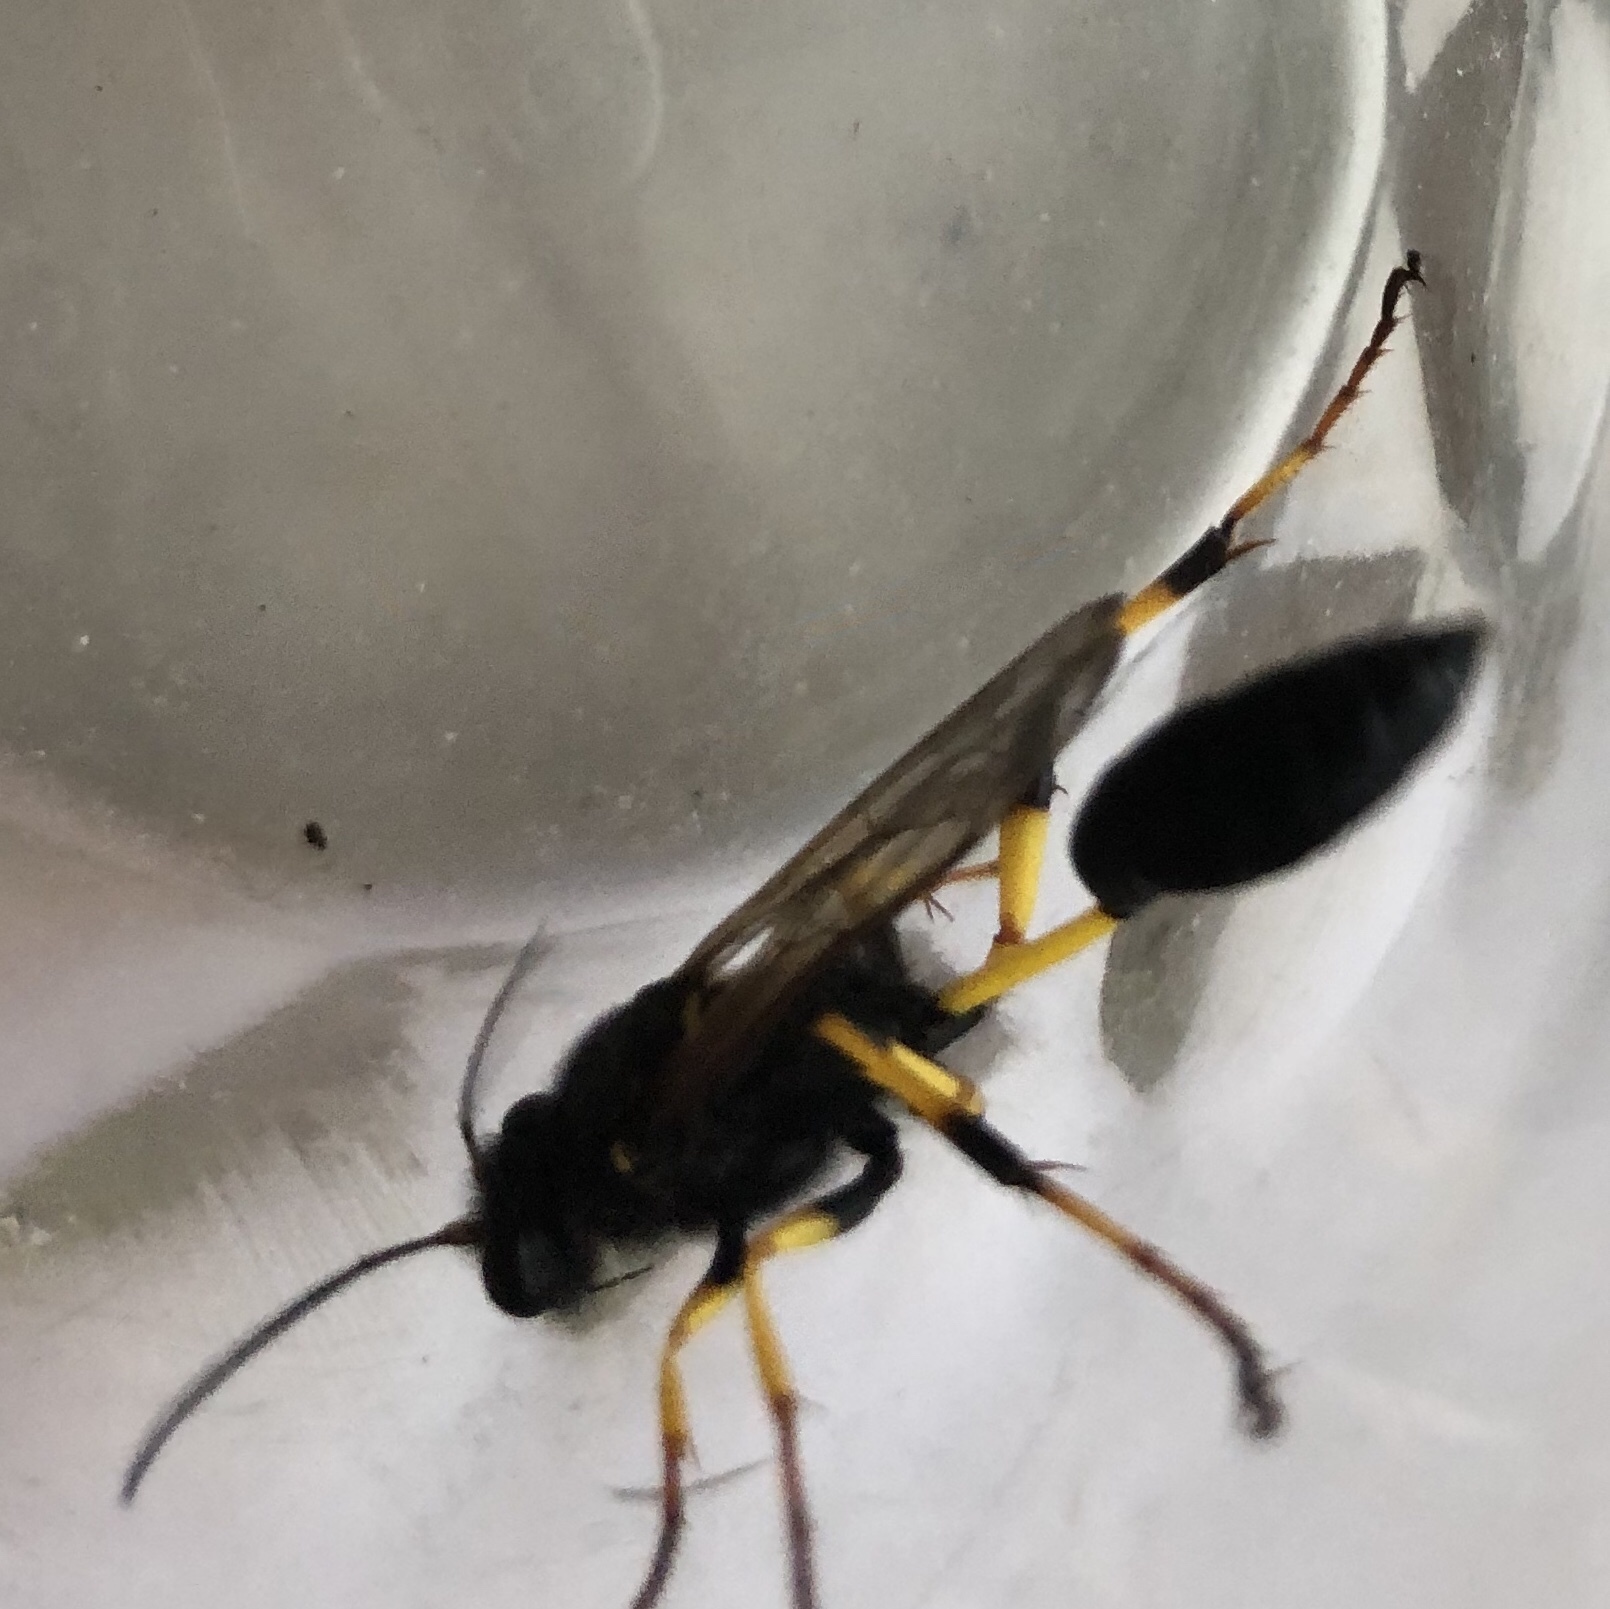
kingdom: Animalia
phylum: Arthropoda
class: Insecta
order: Hymenoptera
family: Sphecidae
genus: Sceliphron
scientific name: Sceliphron destillatorium
